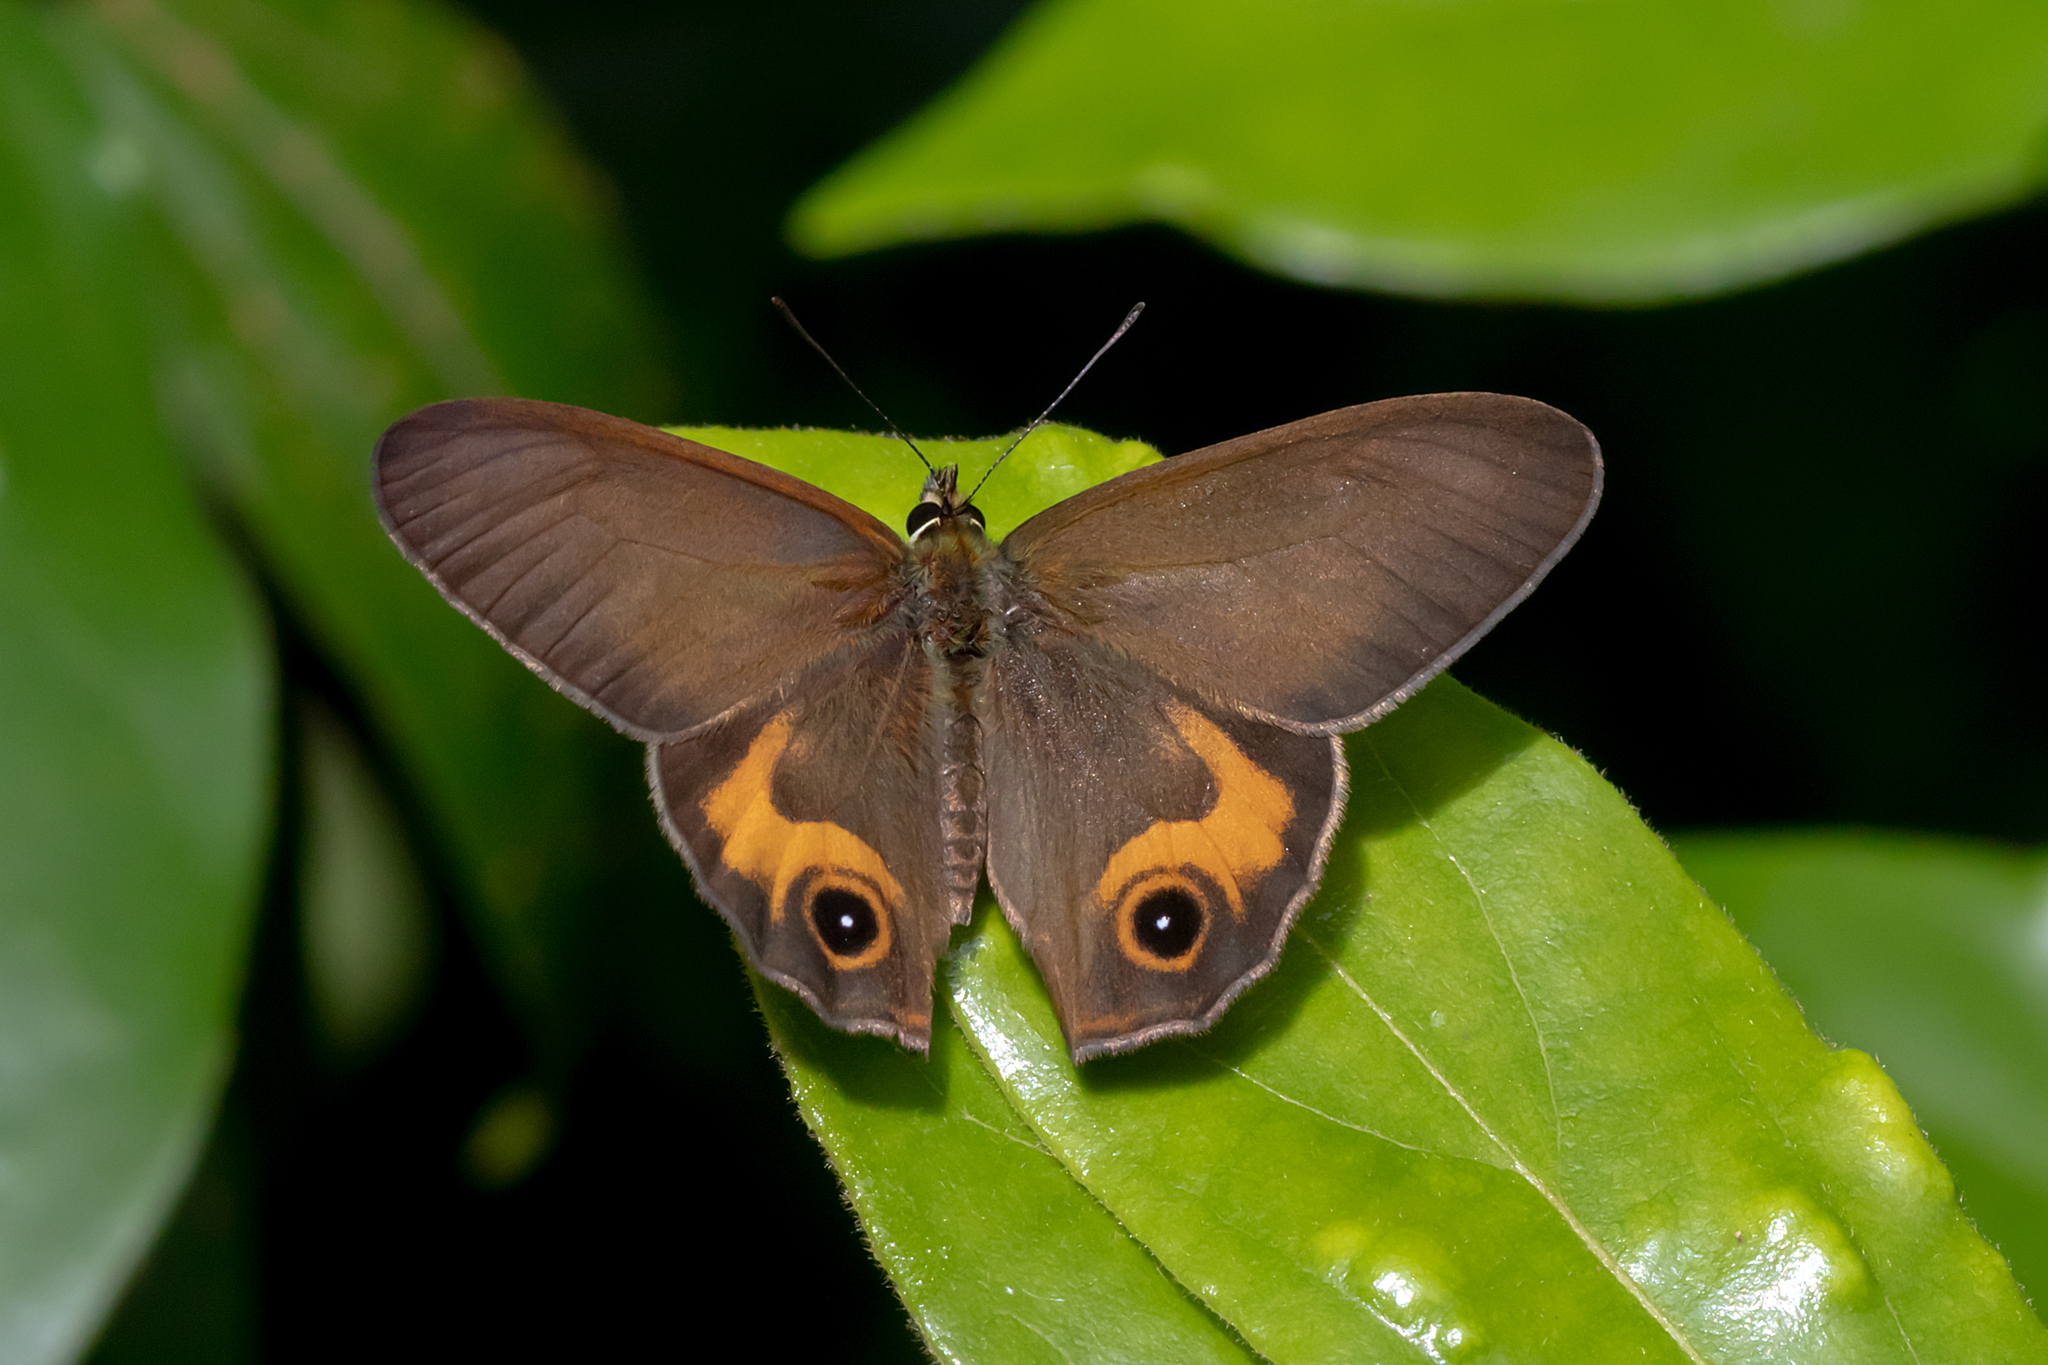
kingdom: Animalia
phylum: Arthropoda
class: Insecta
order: Lepidoptera
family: Nymphalidae
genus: Hypocysta
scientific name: Hypocysta metirius
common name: Brown ringlet
